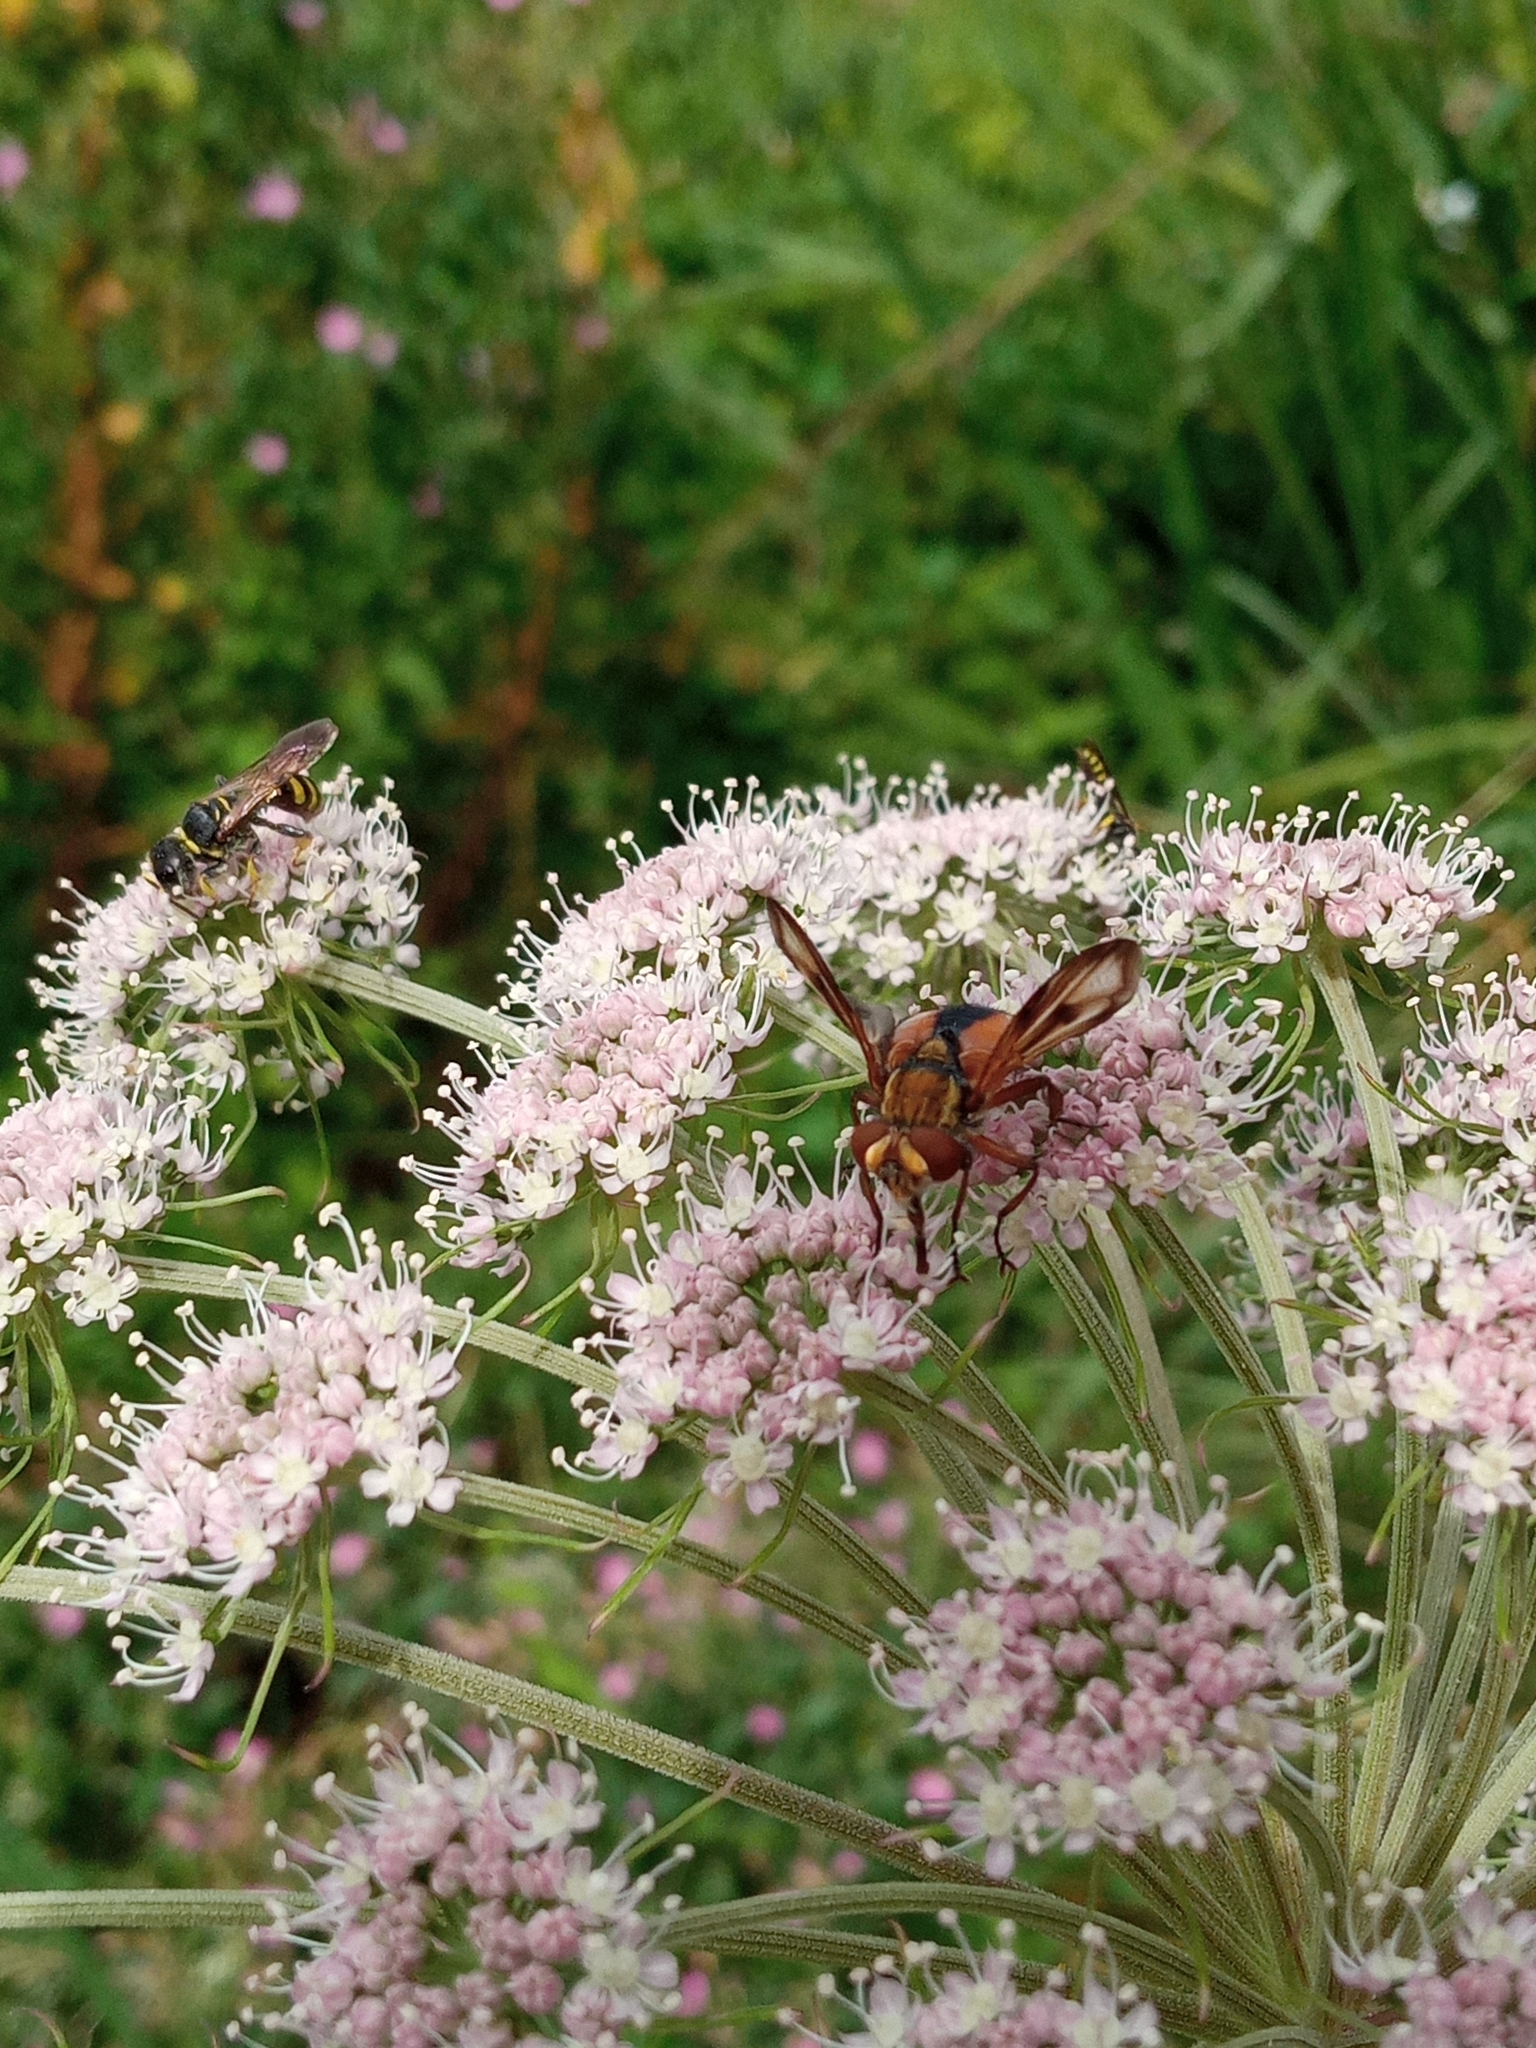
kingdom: Animalia
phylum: Arthropoda
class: Insecta
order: Diptera
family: Tachinidae
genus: Ectophasia
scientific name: Ectophasia crassipennis
